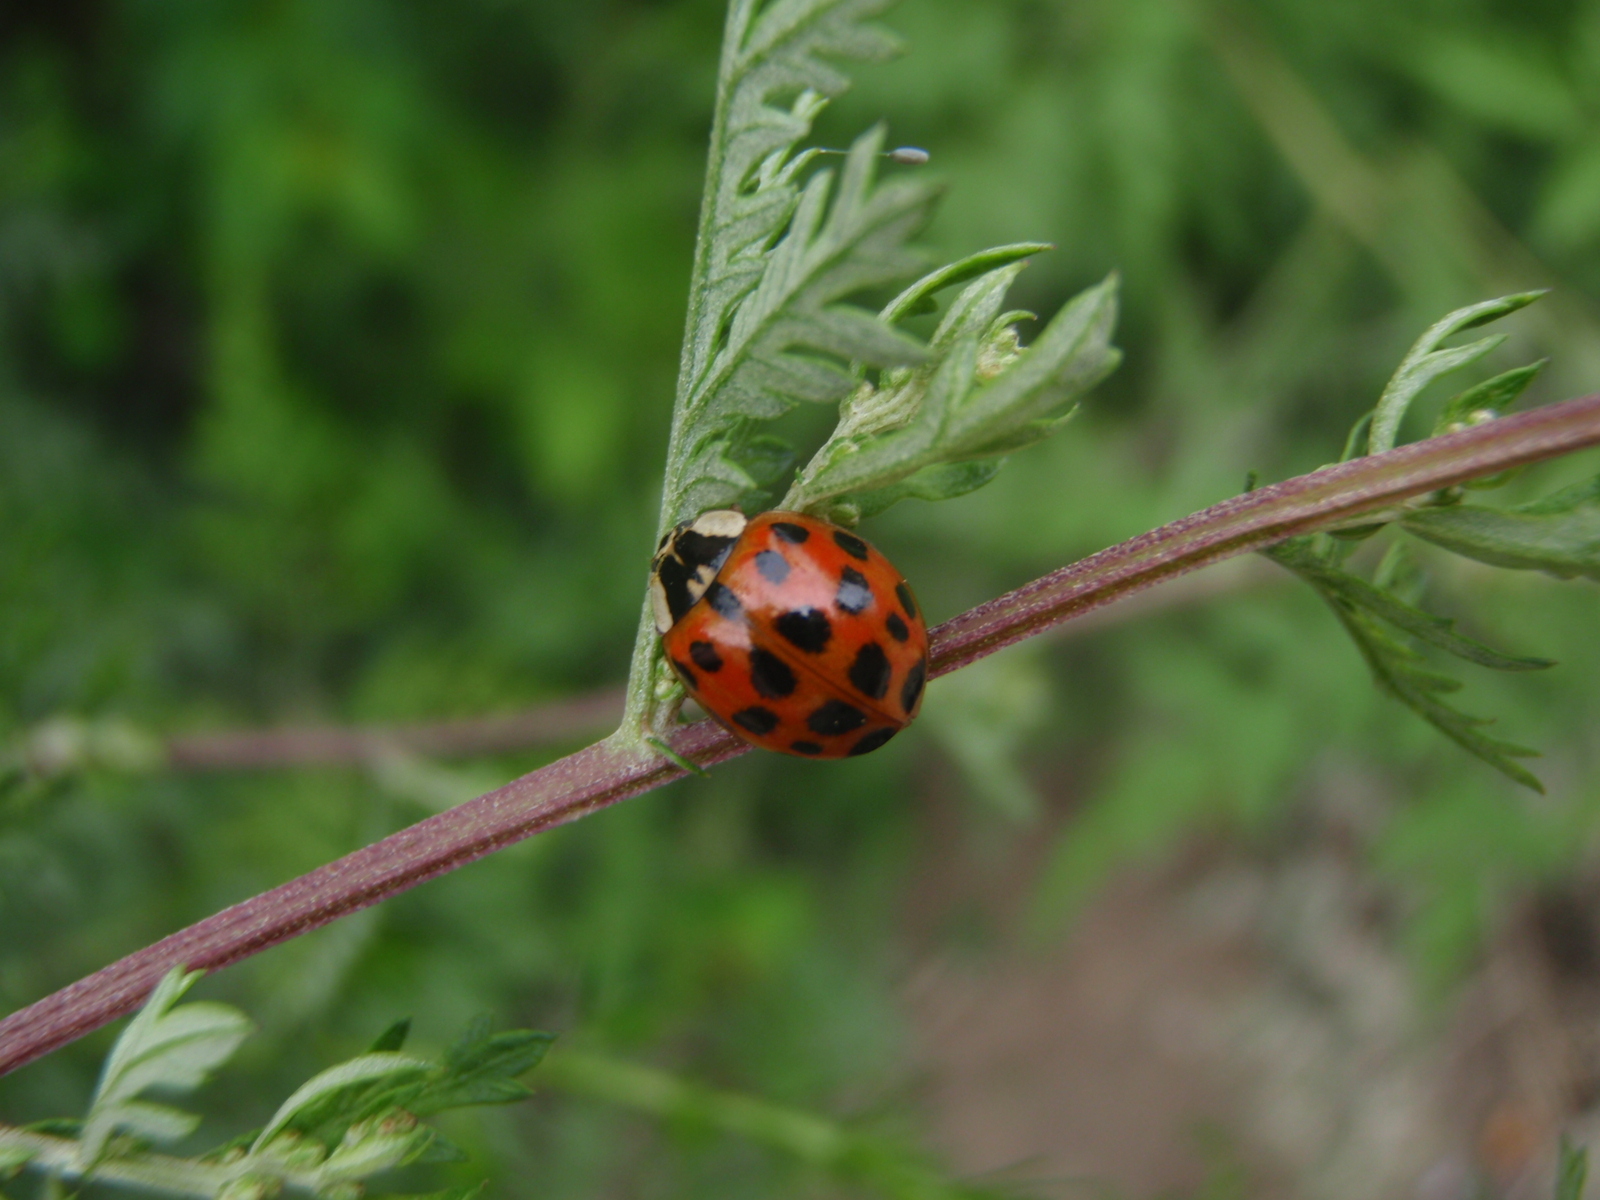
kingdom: Animalia
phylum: Arthropoda
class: Insecta
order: Coleoptera
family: Coccinellidae
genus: Harmonia
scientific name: Harmonia axyridis
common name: Harlequin ladybird
